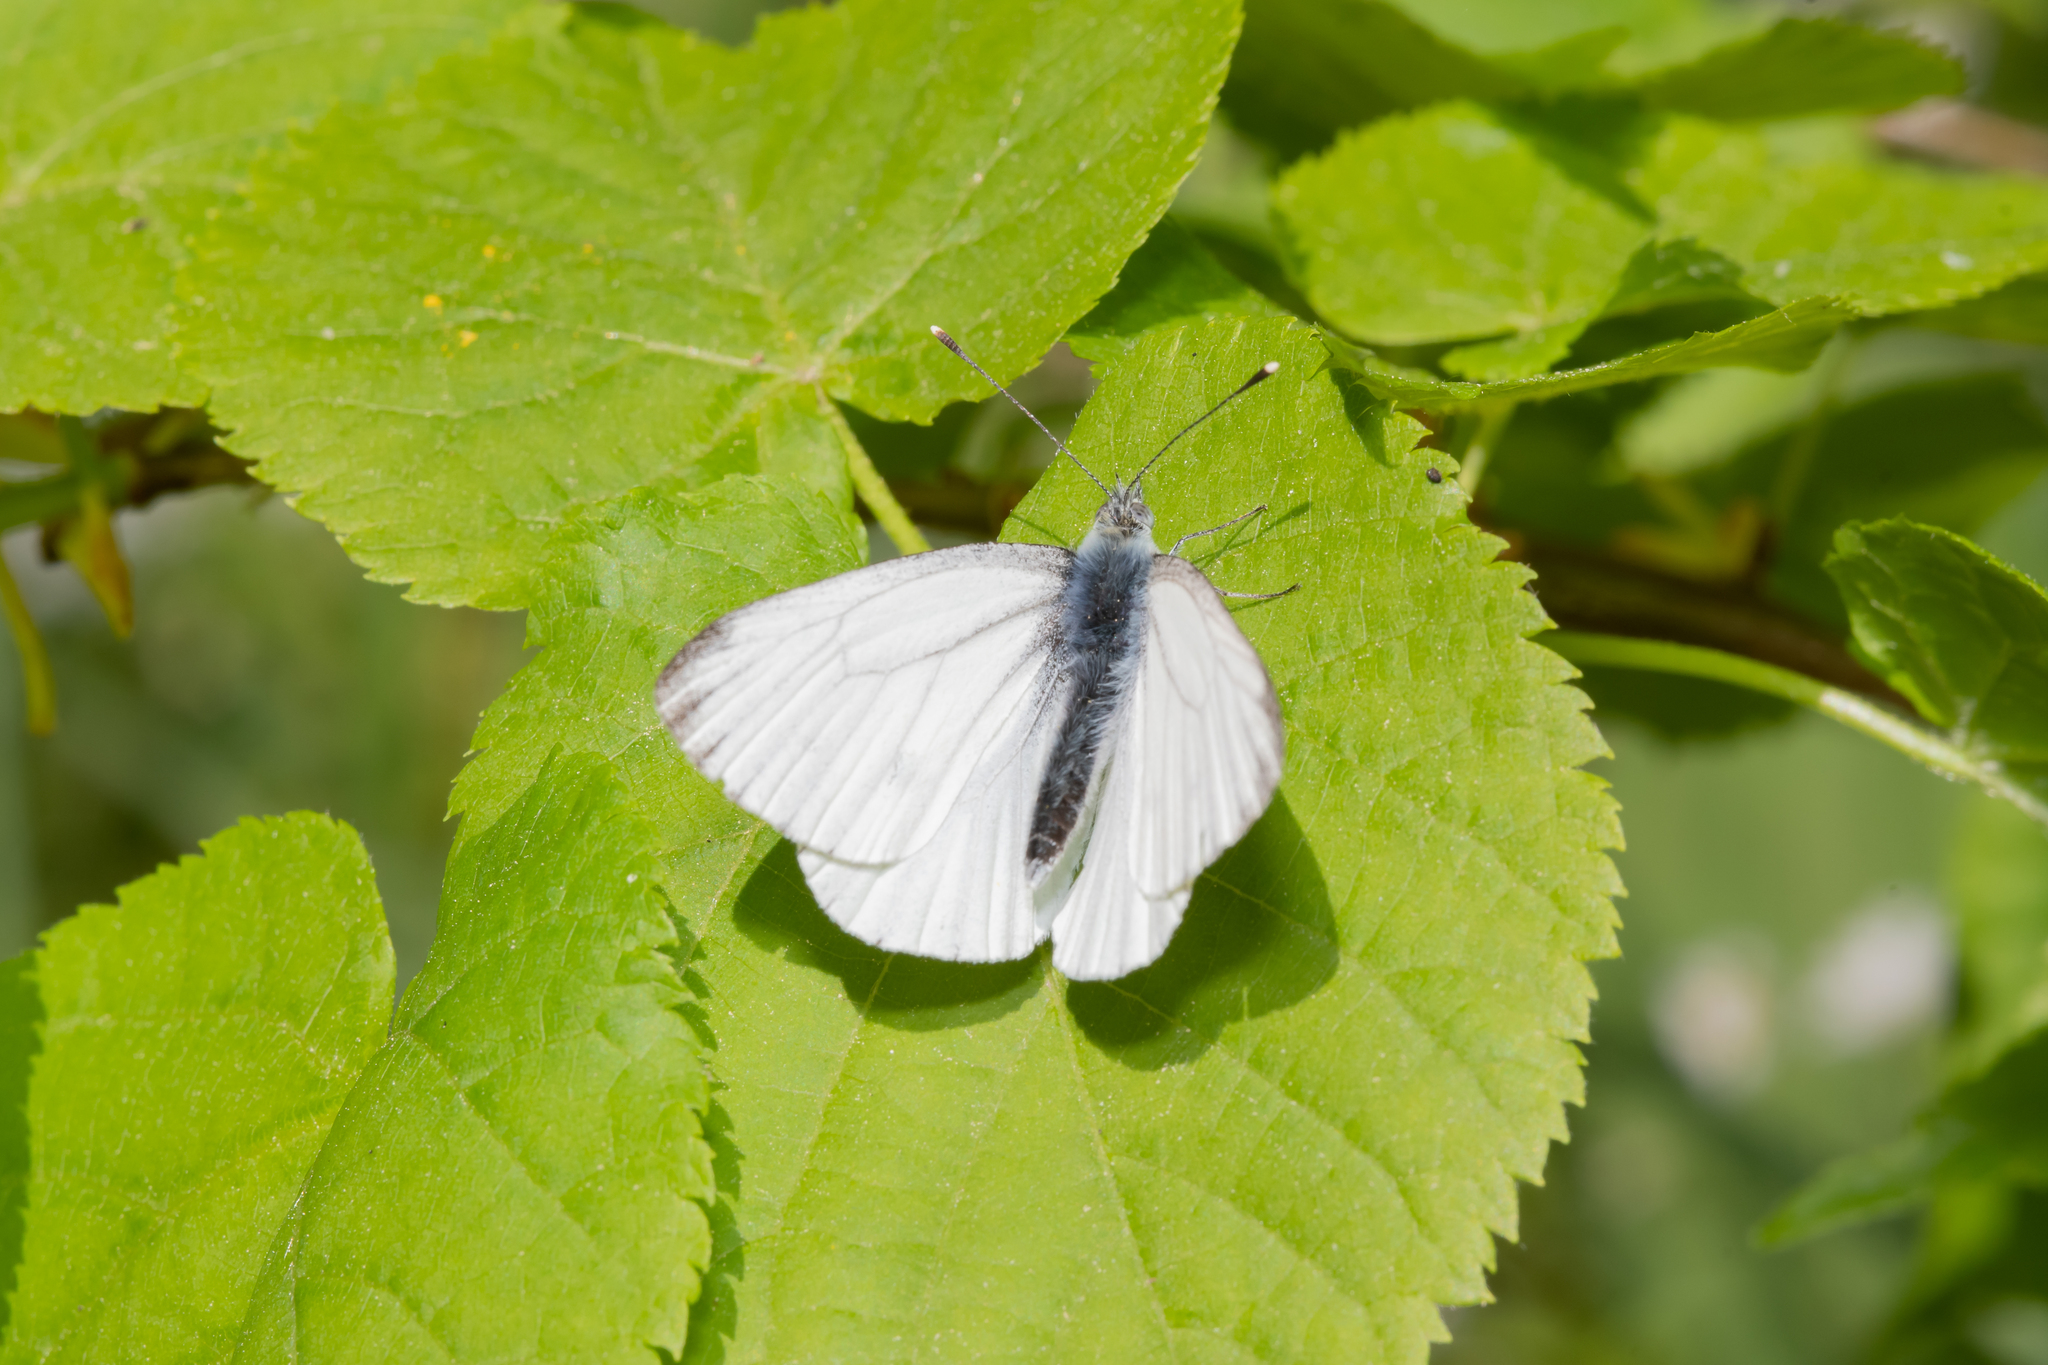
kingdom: Animalia
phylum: Arthropoda
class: Insecta
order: Lepidoptera
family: Pieridae
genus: Pieris
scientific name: Pieris napi
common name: Green-veined white
